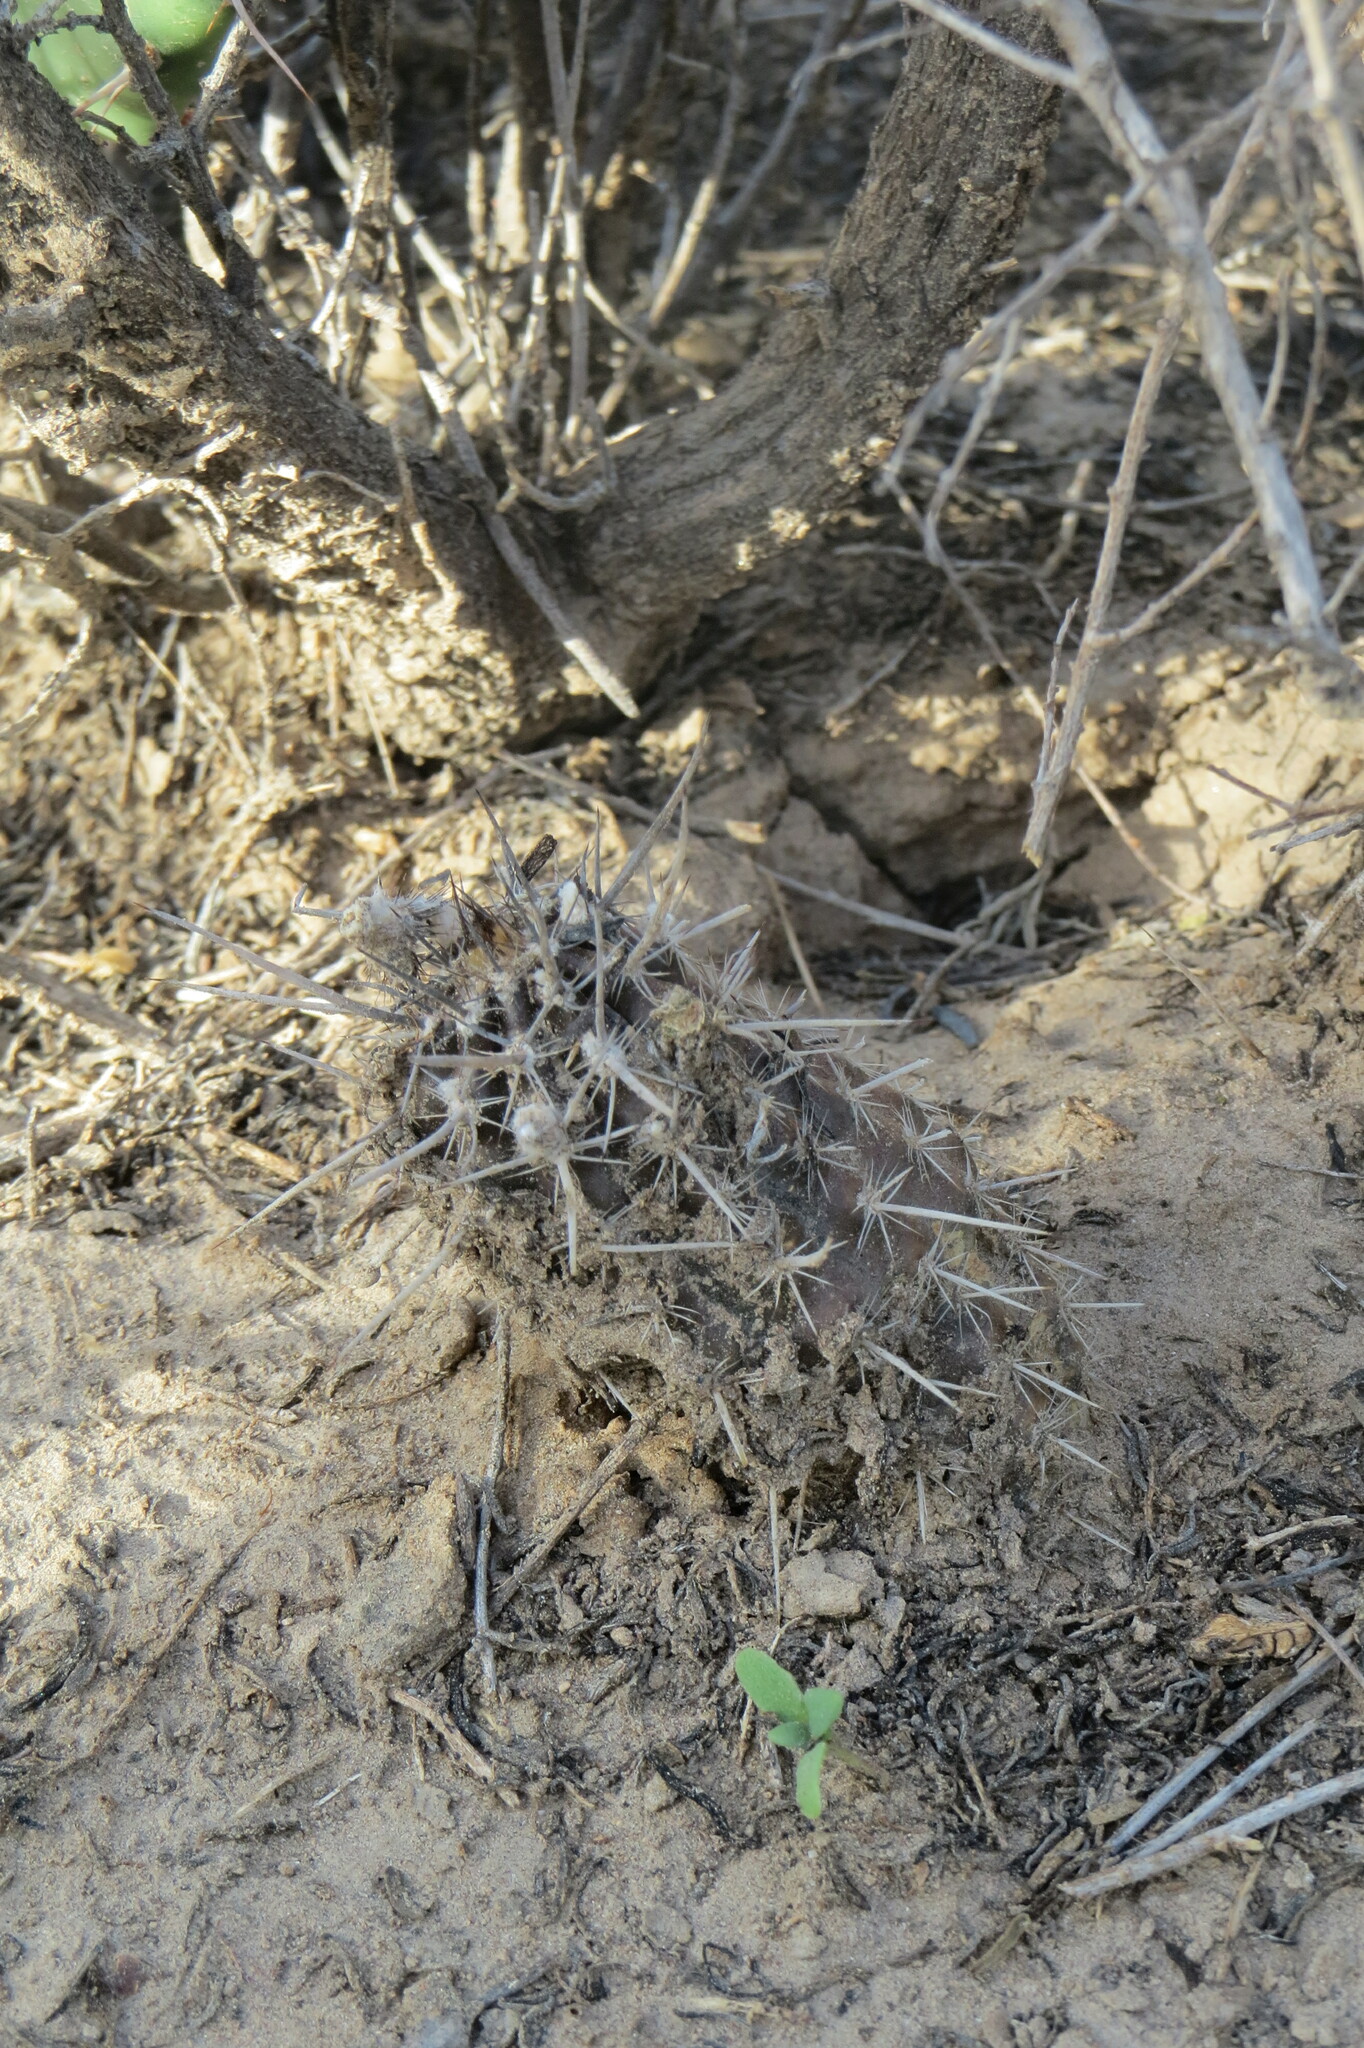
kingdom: Plantae
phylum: Tracheophyta
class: Magnoliopsida
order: Caryophyllales
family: Cactaceae
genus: Setiechinopsis
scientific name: Setiechinopsis mirabilis
